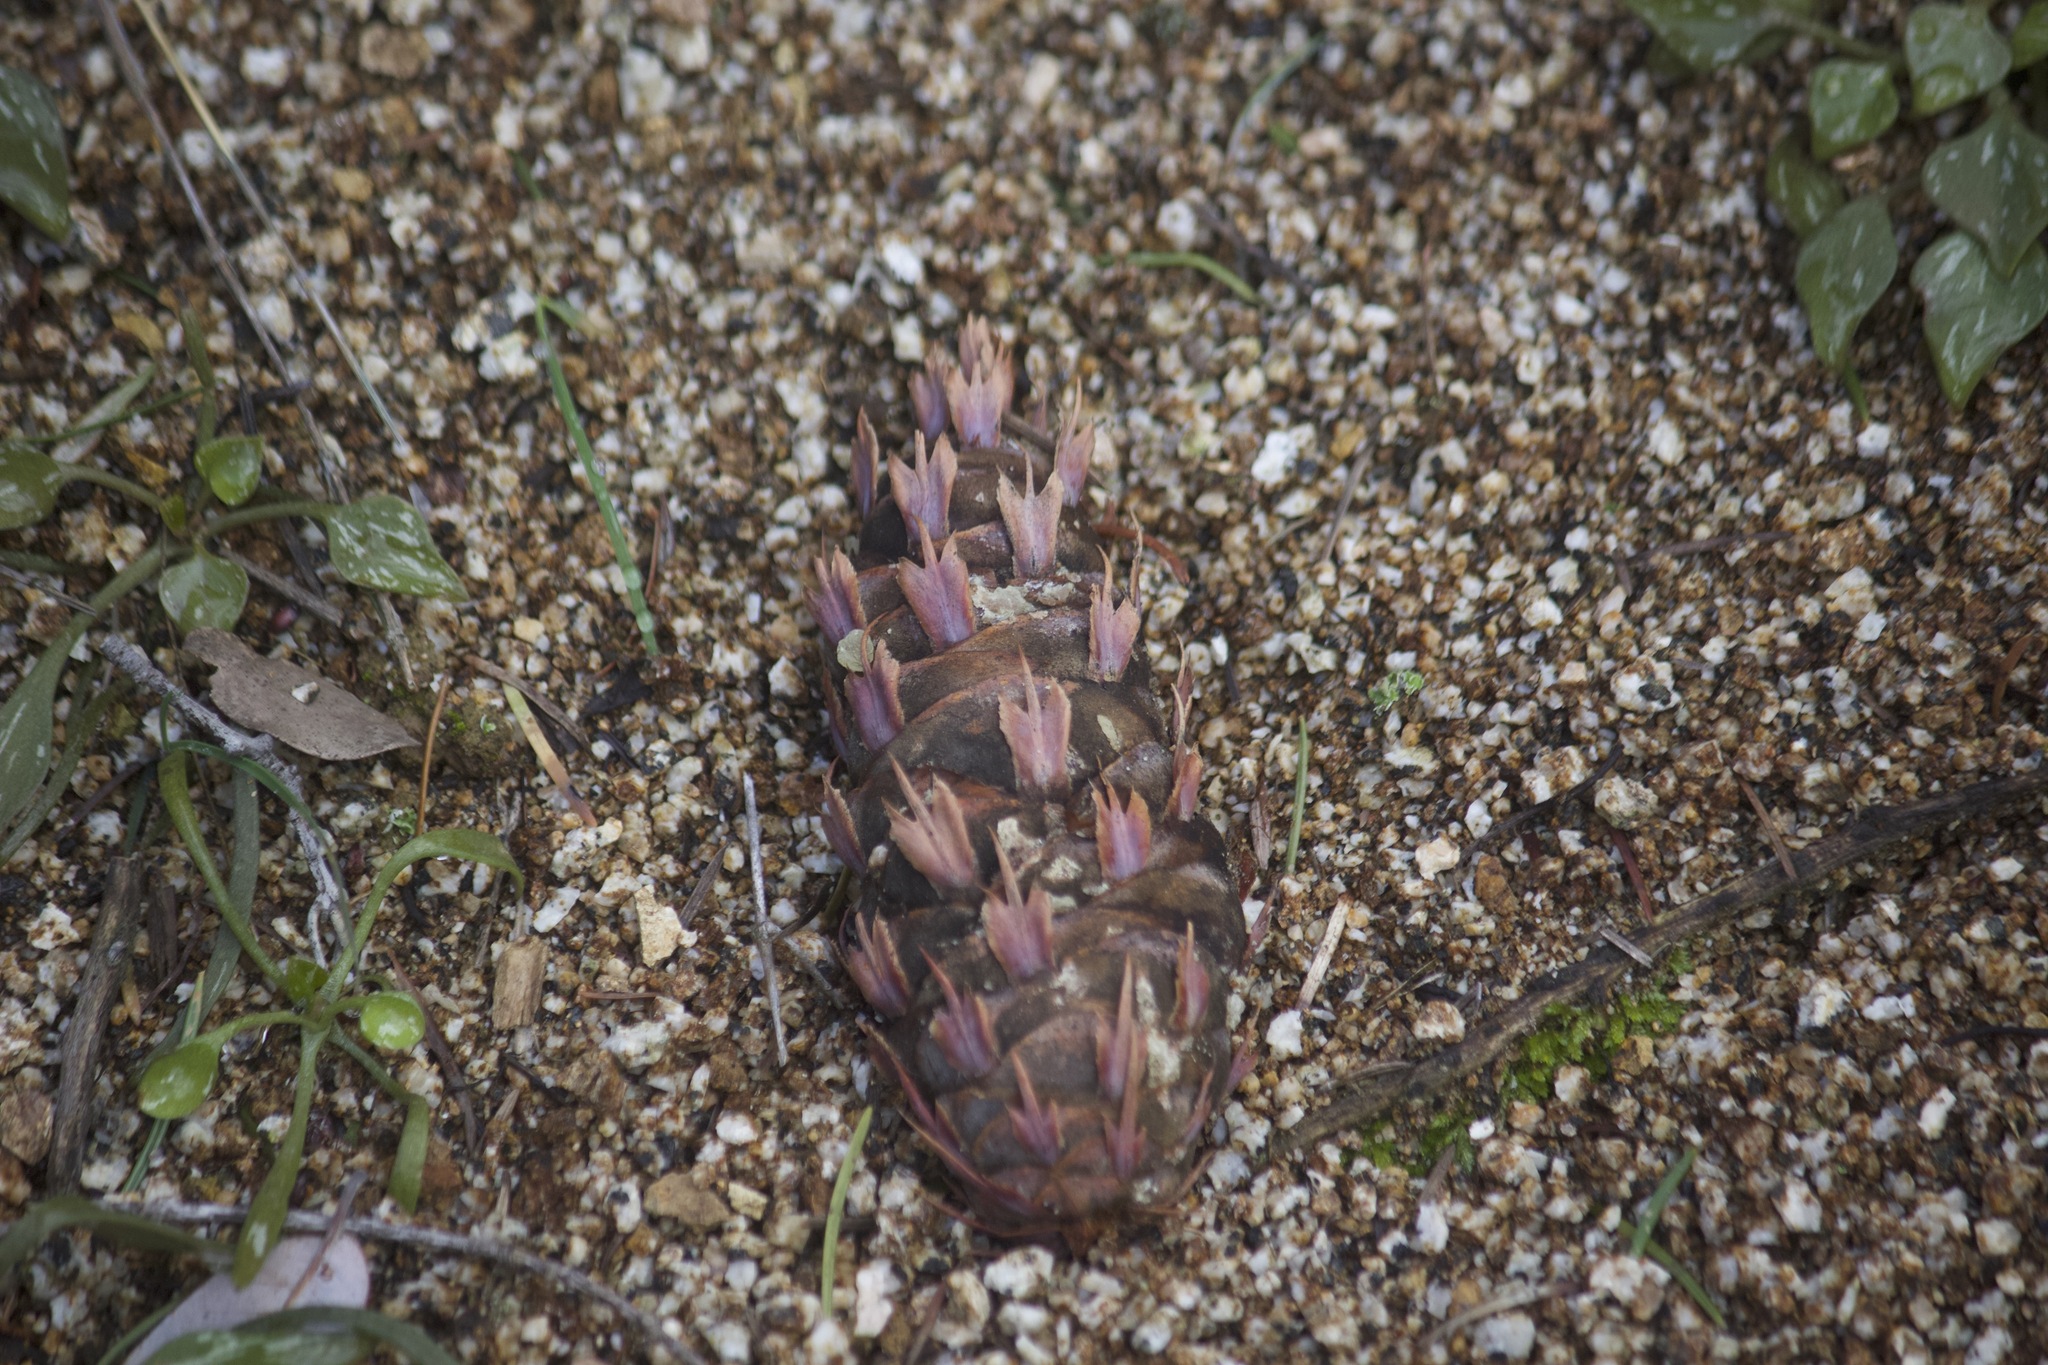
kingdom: Plantae
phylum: Tracheophyta
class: Pinopsida
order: Pinales
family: Pinaceae
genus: Pseudotsuga
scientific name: Pseudotsuga macrocarpa
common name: Big-cone douglas-fir
